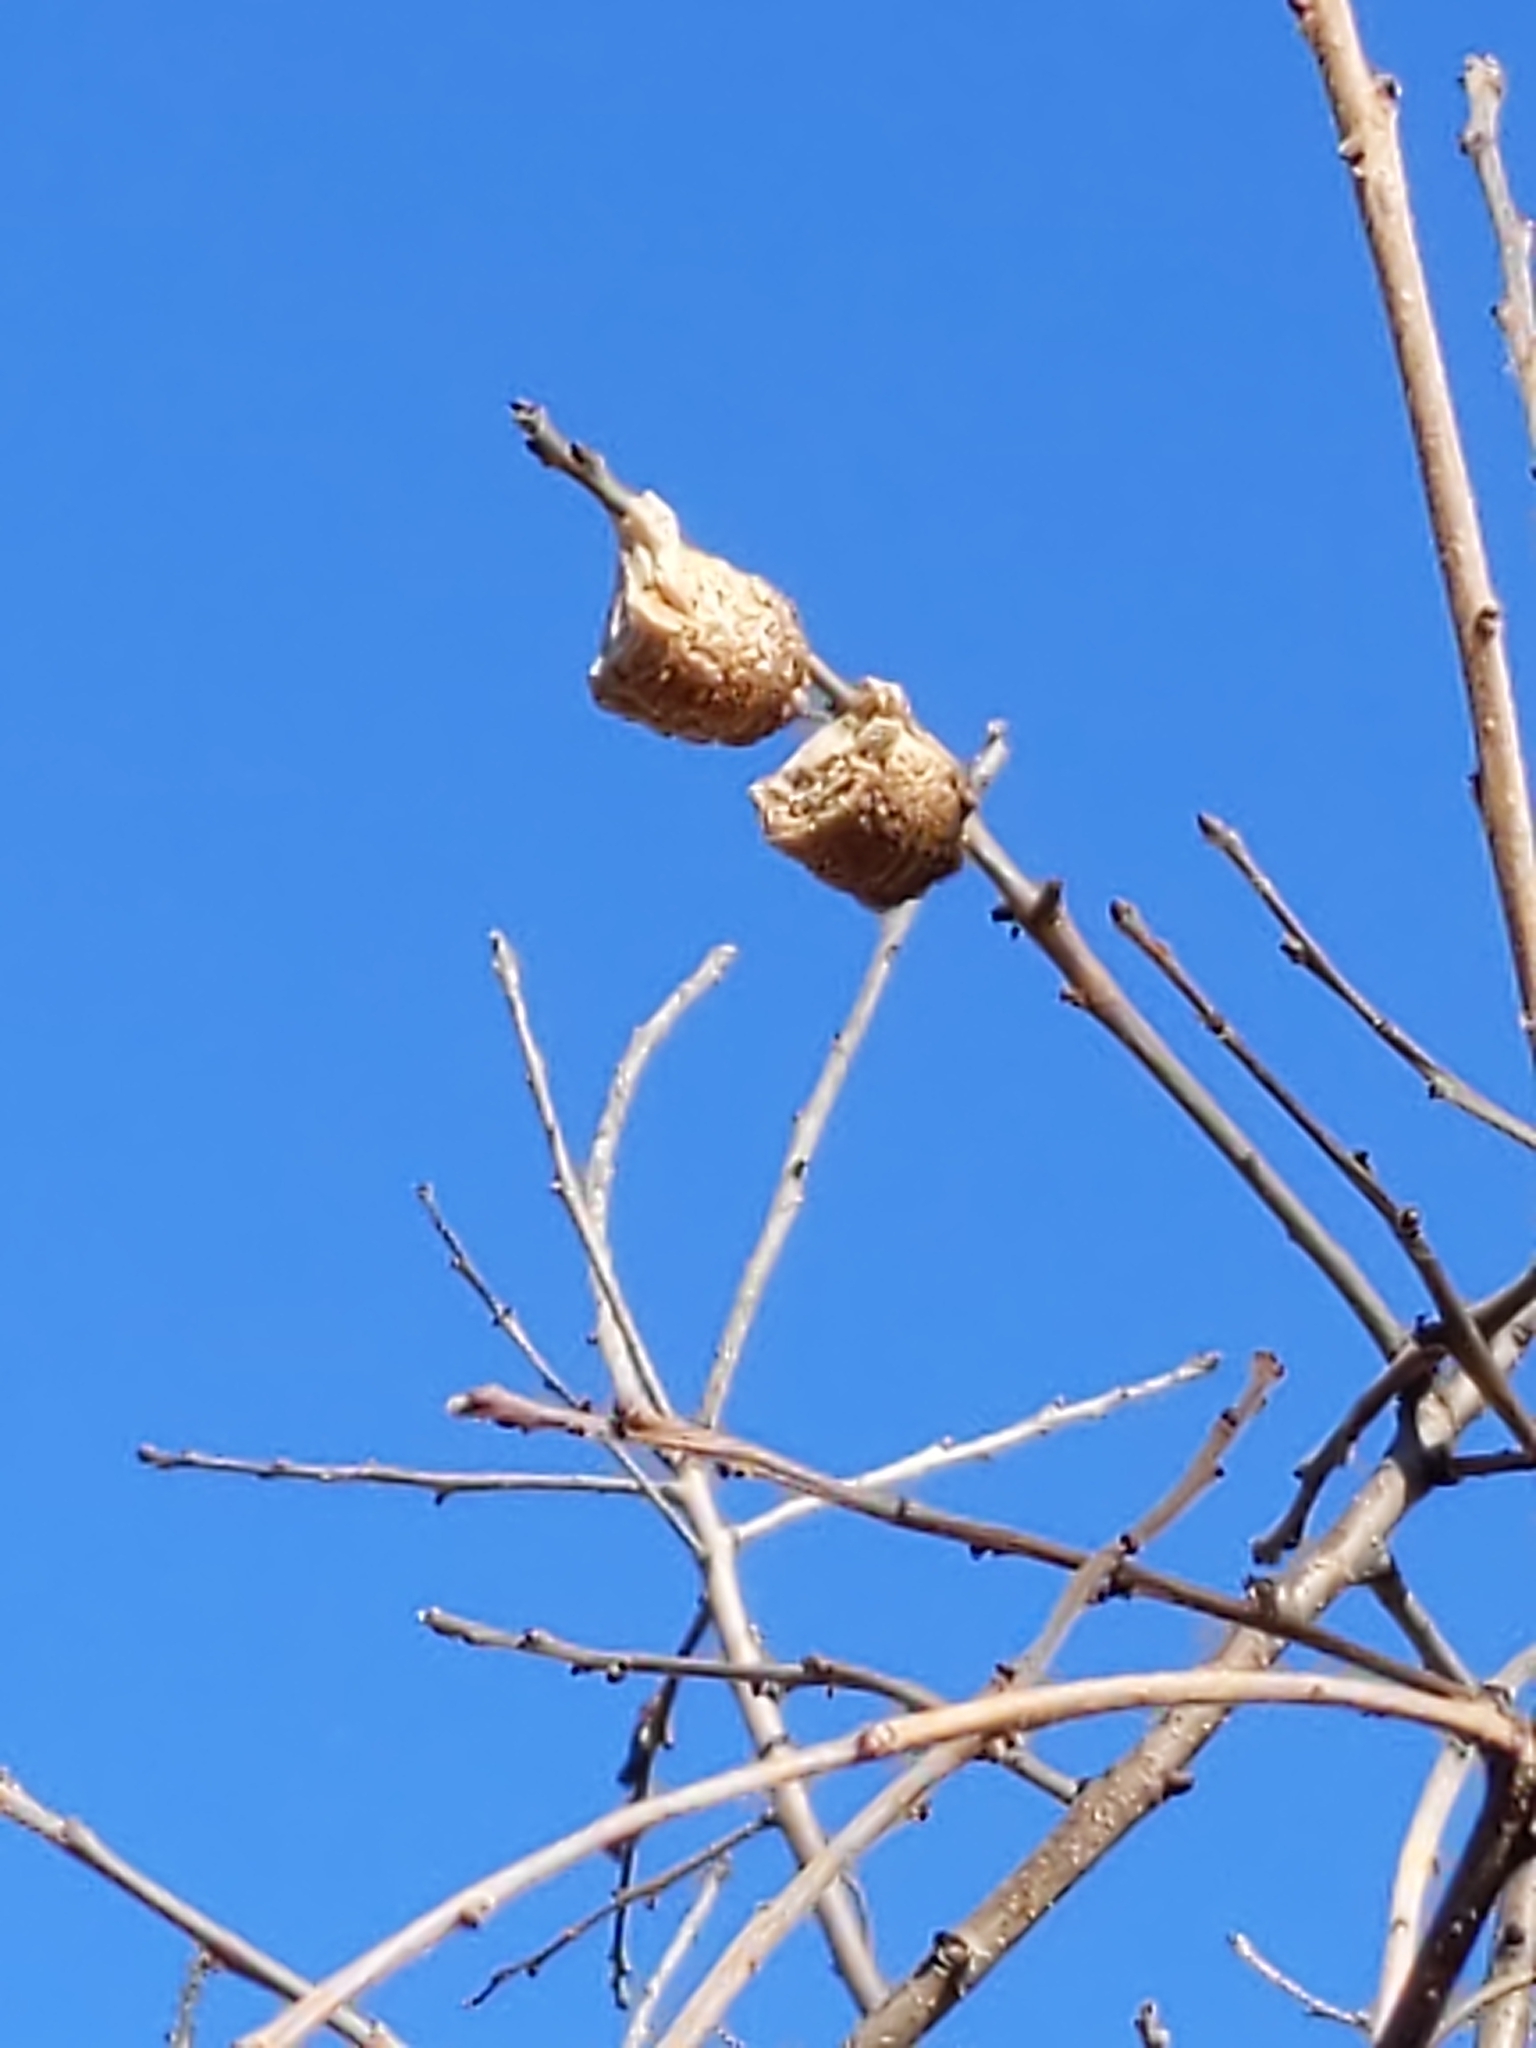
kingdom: Animalia
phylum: Arthropoda
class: Insecta
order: Mantodea
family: Mantidae
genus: Tenodera
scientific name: Tenodera sinensis
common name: Chinese mantis
